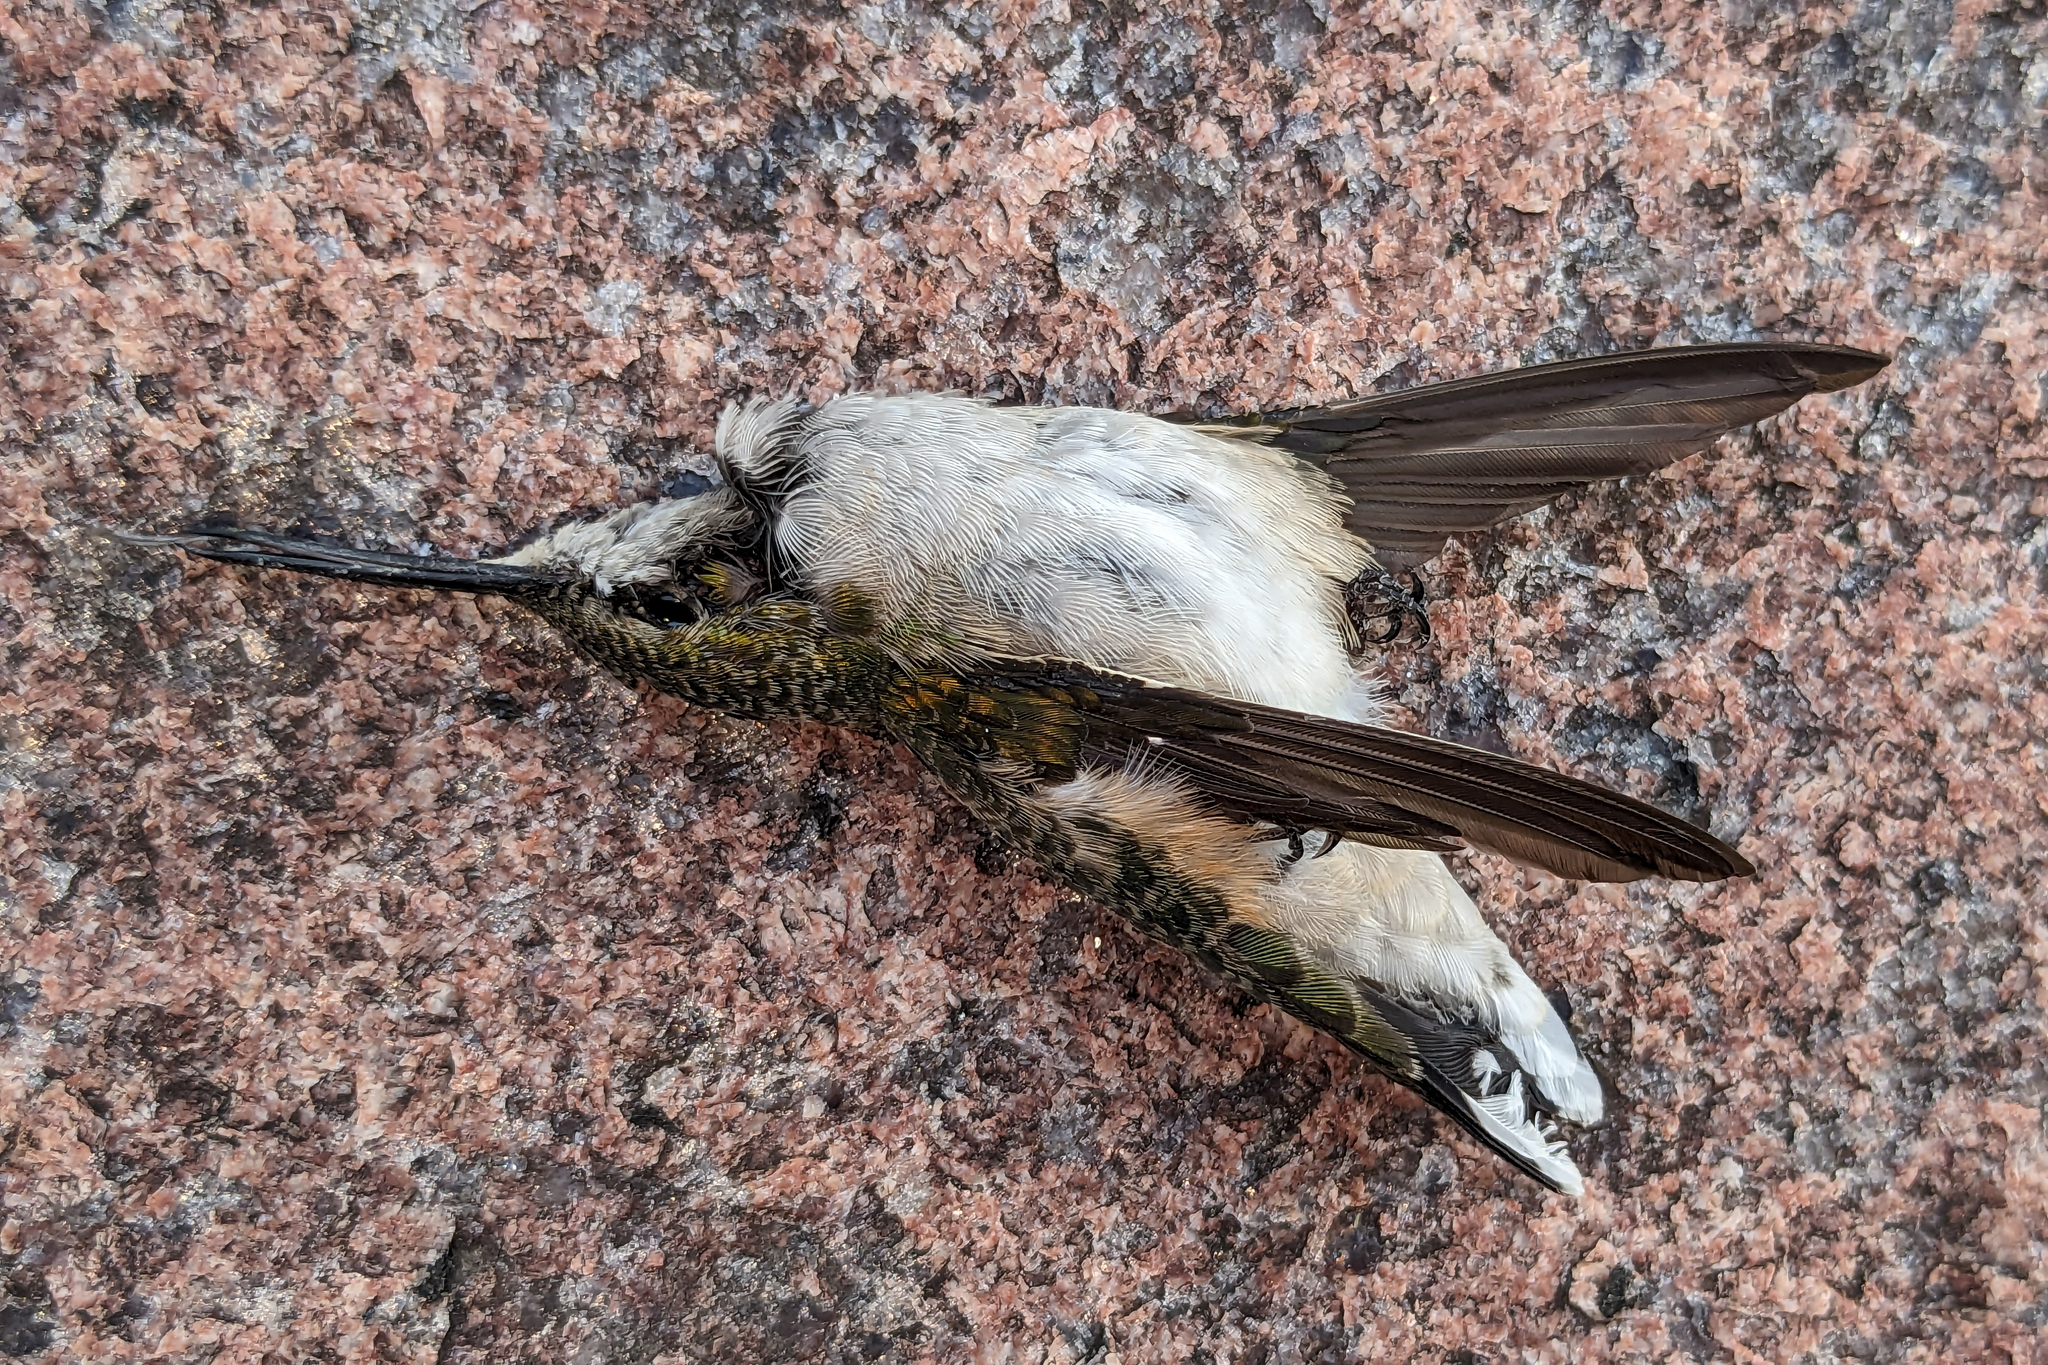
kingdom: Animalia
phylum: Chordata
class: Aves
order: Apodiformes
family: Trochilidae
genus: Archilochus
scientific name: Archilochus colubris
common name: Ruby-throated hummingbird
